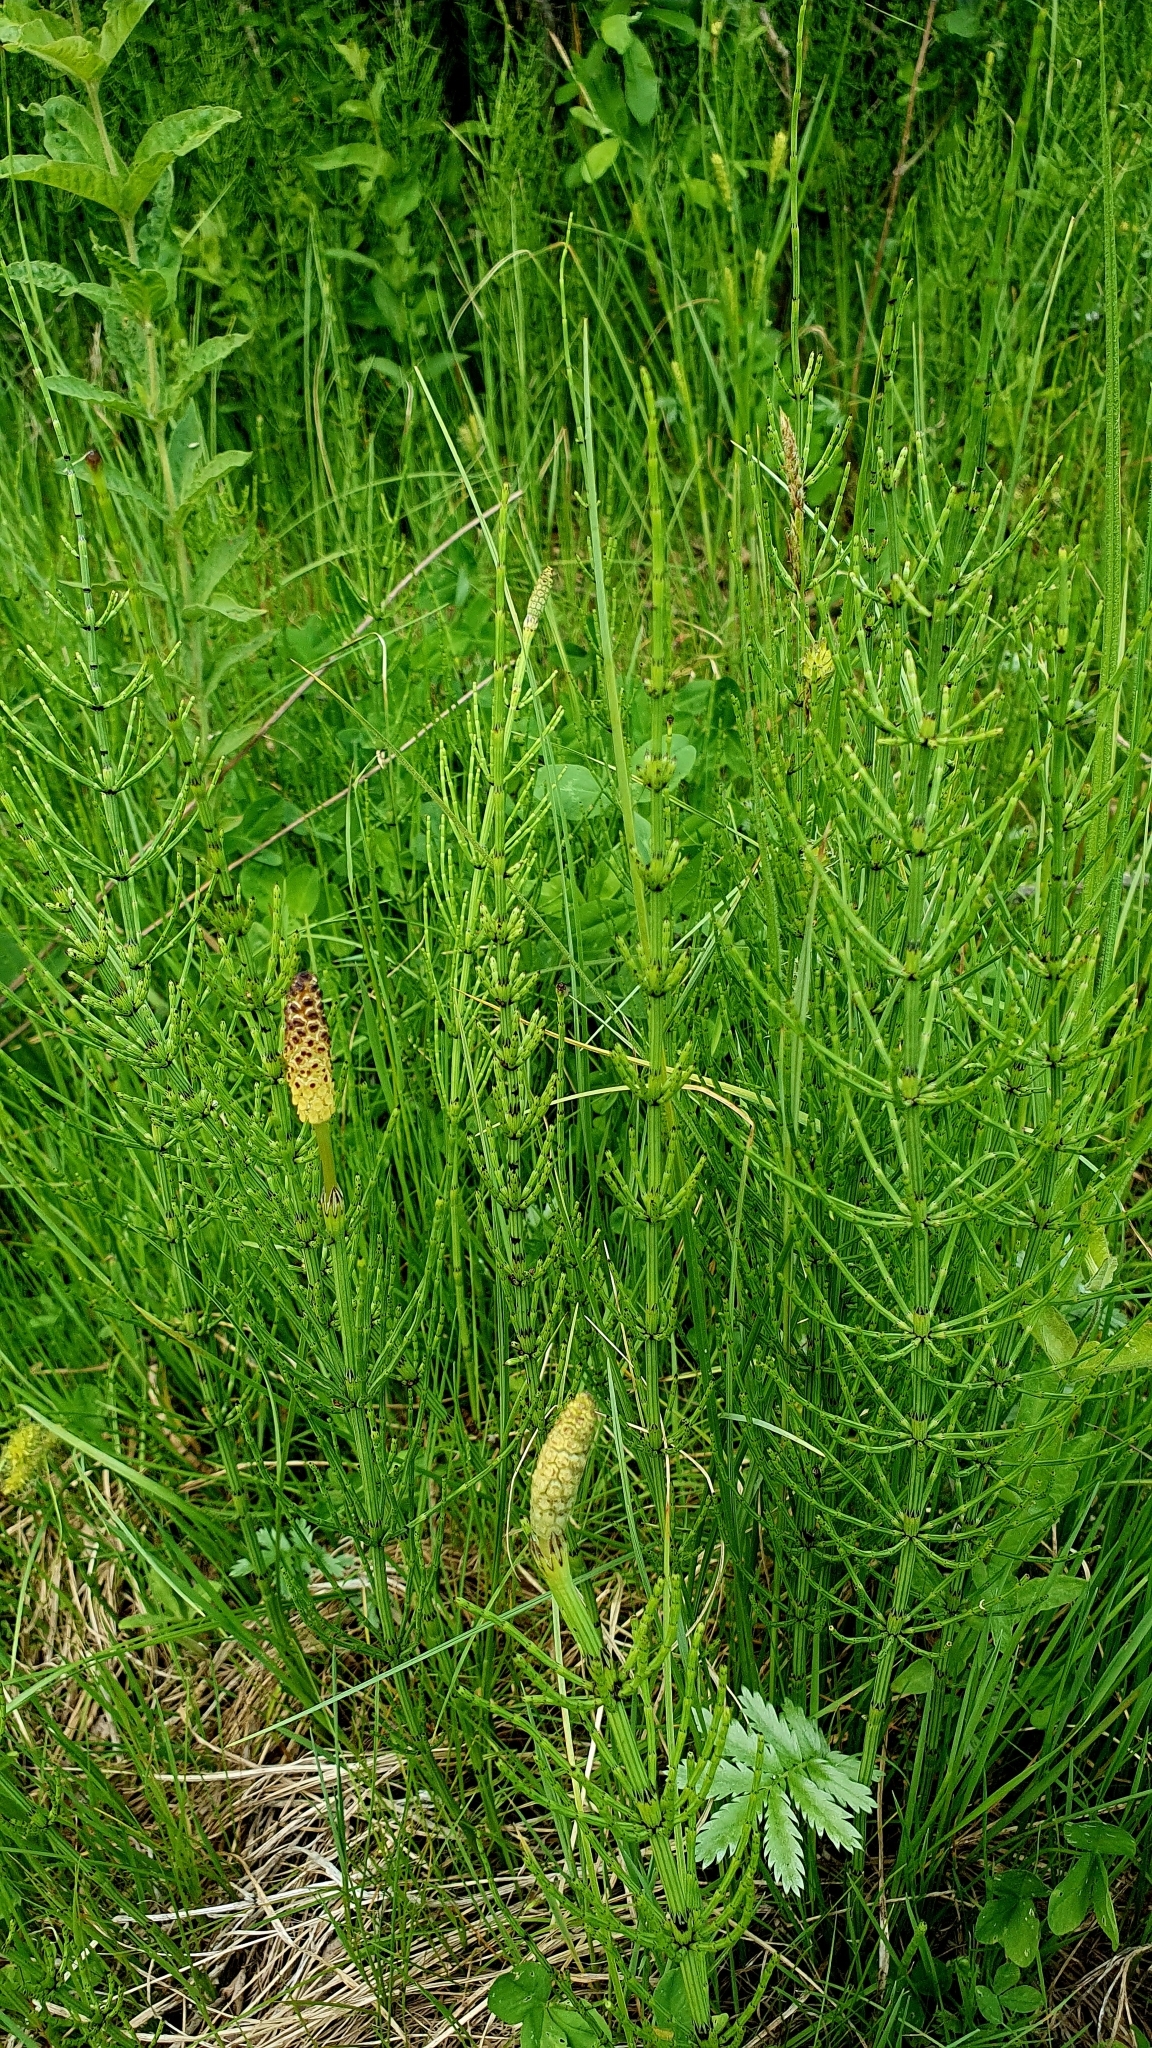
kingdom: Plantae
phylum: Tracheophyta
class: Polypodiopsida
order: Equisetales
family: Equisetaceae
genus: Equisetum
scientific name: Equisetum palustre
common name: Marsh horsetail
